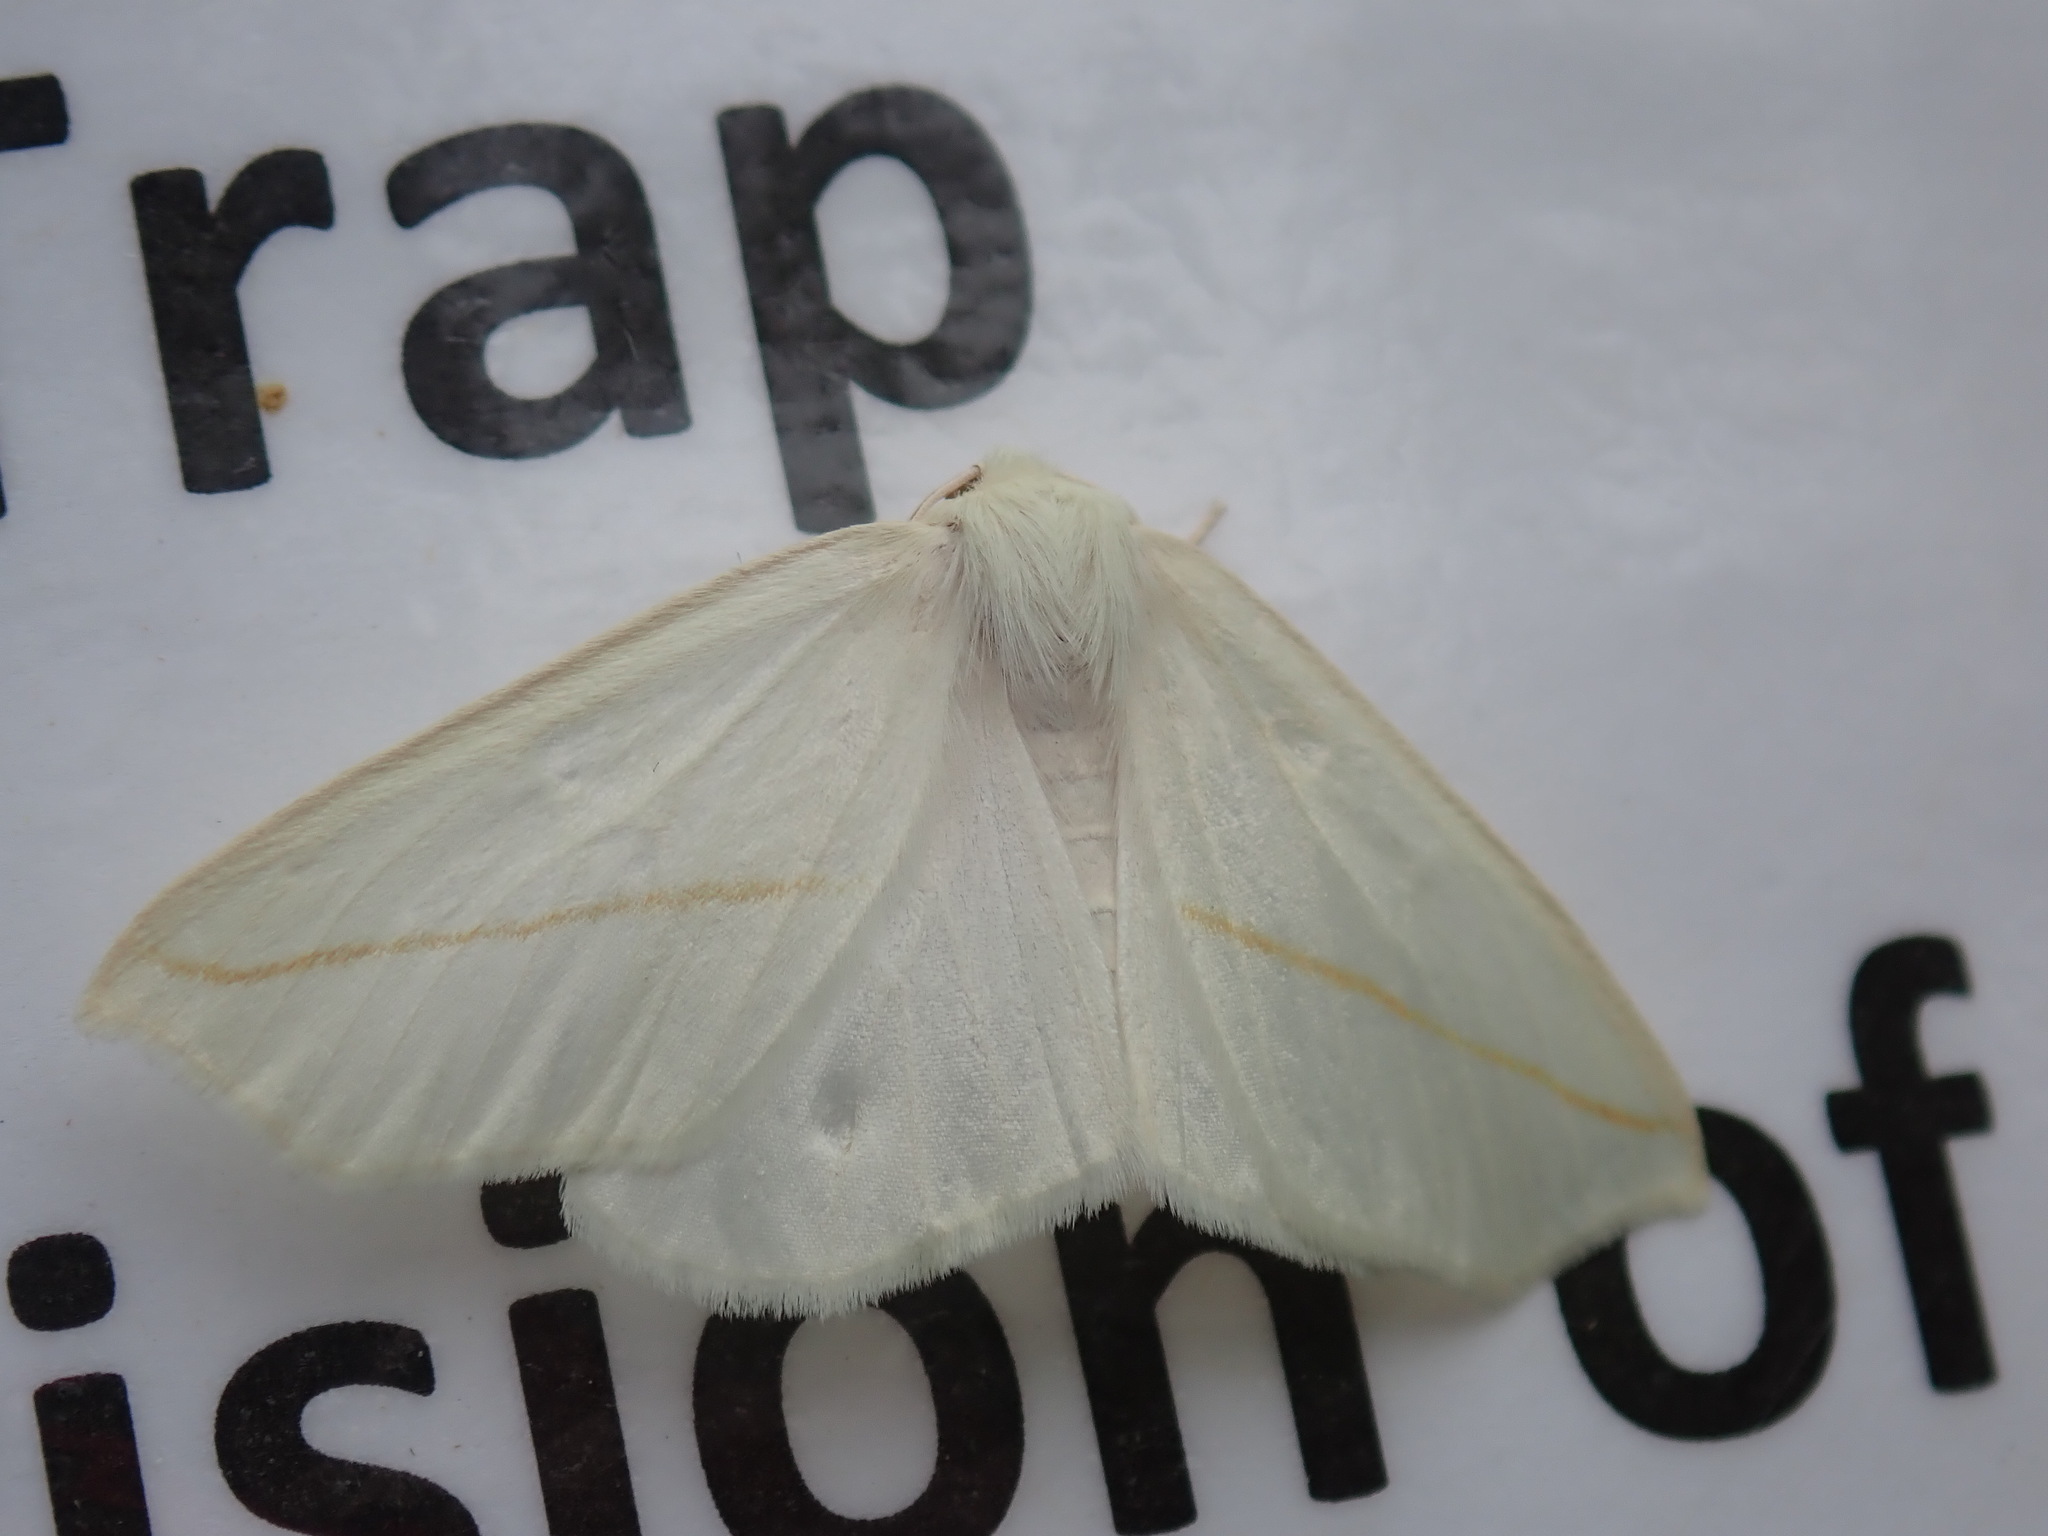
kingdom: Animalia
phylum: Arthropoda
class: Insecta
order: Lepidoptera
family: Geometridae
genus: Tetracis
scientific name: Tetracis cachexiata
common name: White slant-line
